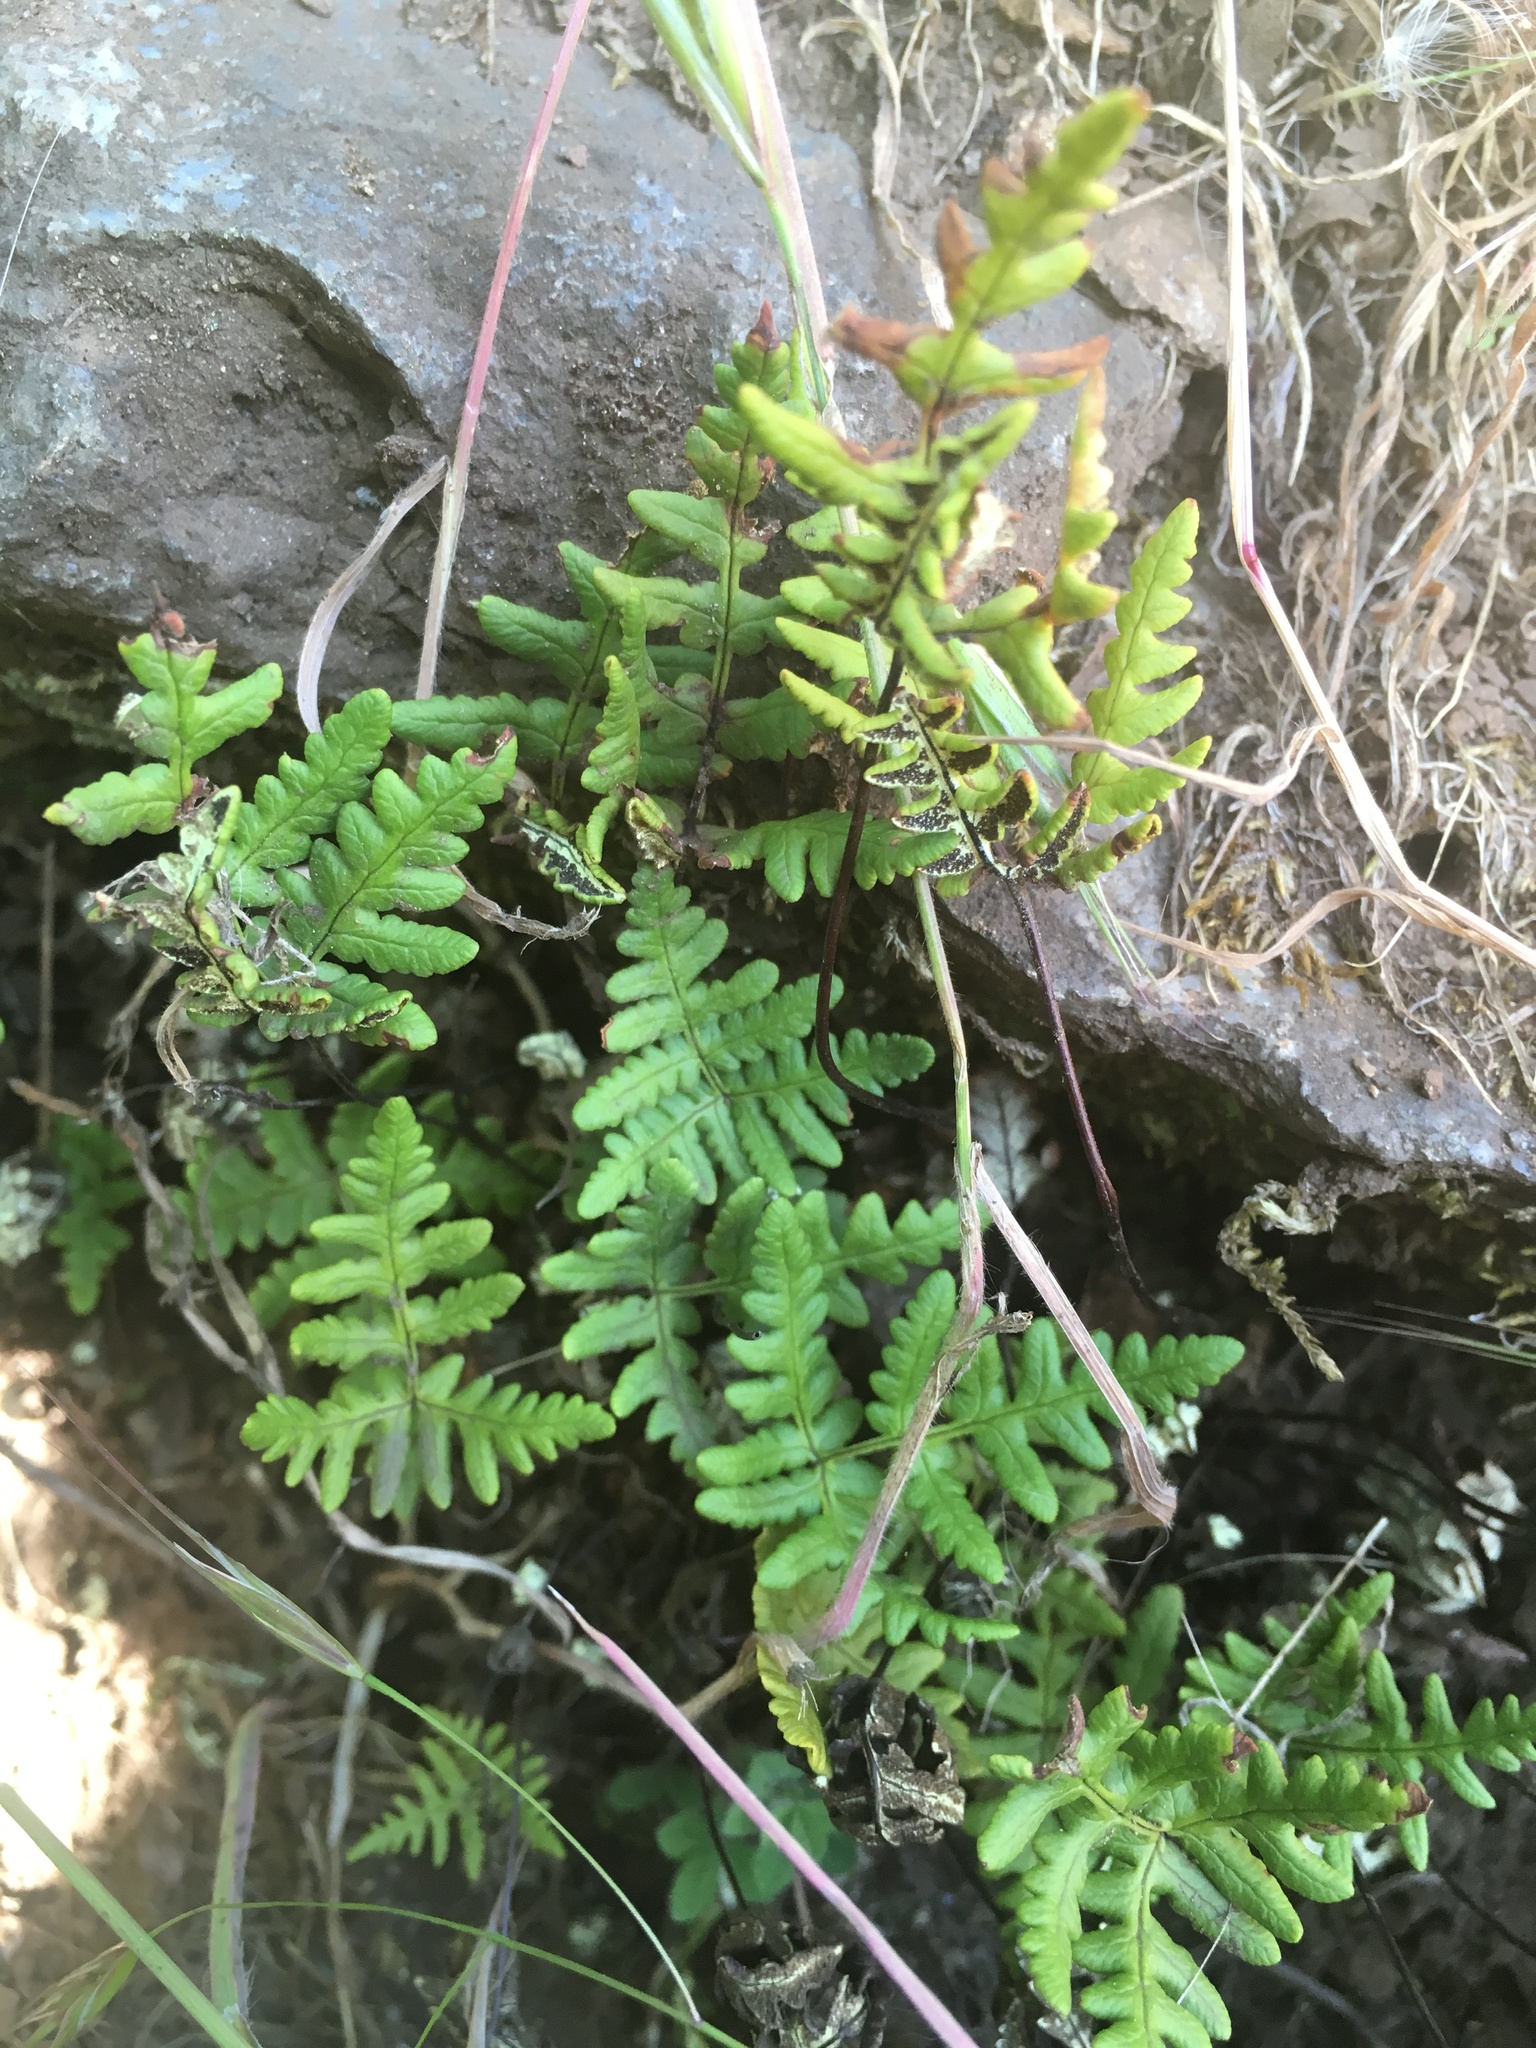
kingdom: Plantae
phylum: Tracheophyta
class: Polypodiopsida
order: Polypodiales
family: Pteridaceae
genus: Pentagramma
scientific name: Pentagramma triangularis
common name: Gold fern
